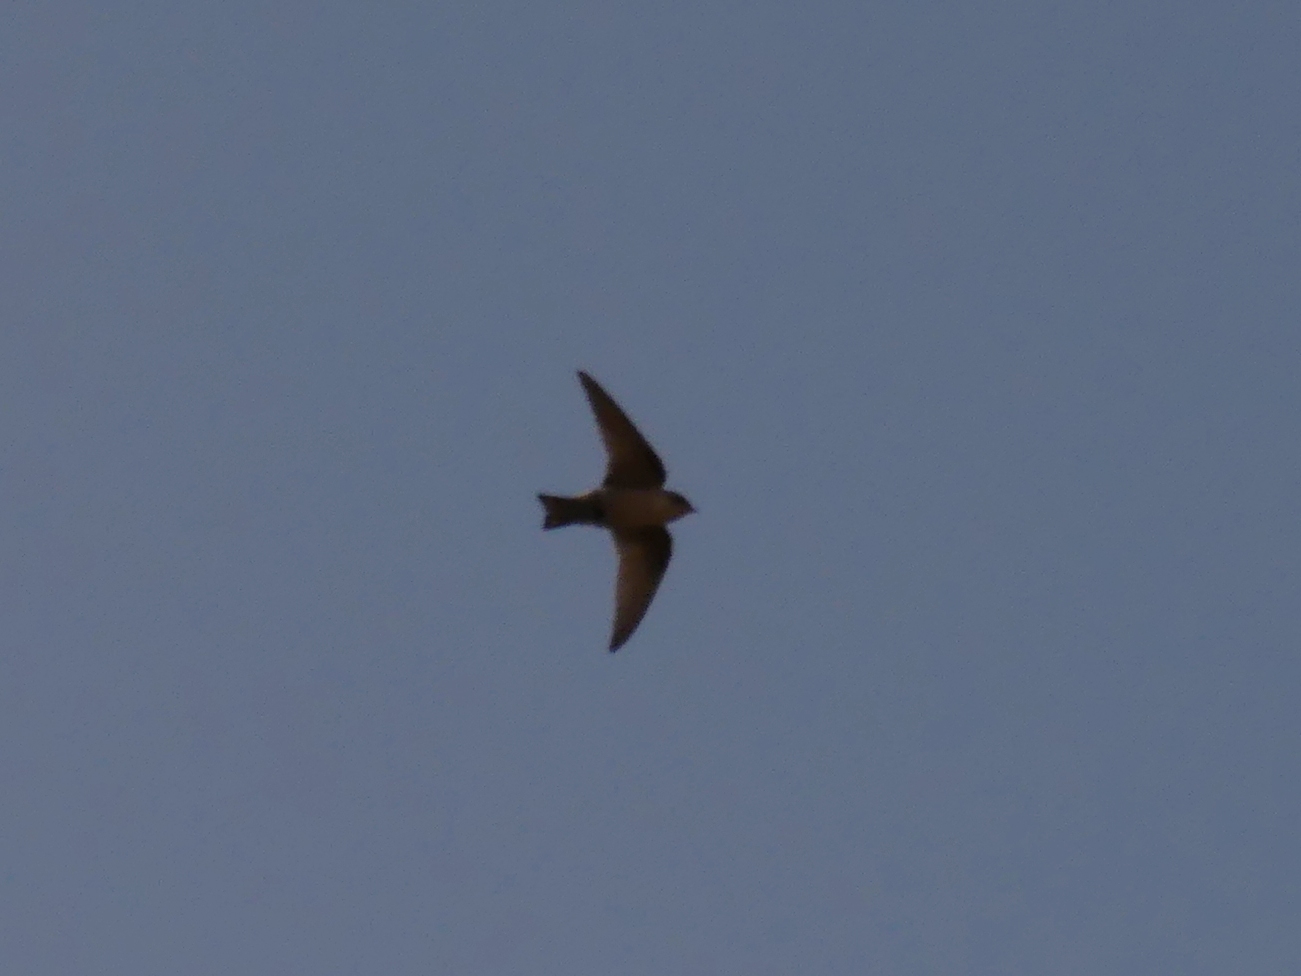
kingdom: Animalia
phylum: Chordata
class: Aves
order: Passeriformes
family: Hirundinidae
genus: Ptyonoprogne
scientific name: Ptyonoprogne fuligula
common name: Rock martin
